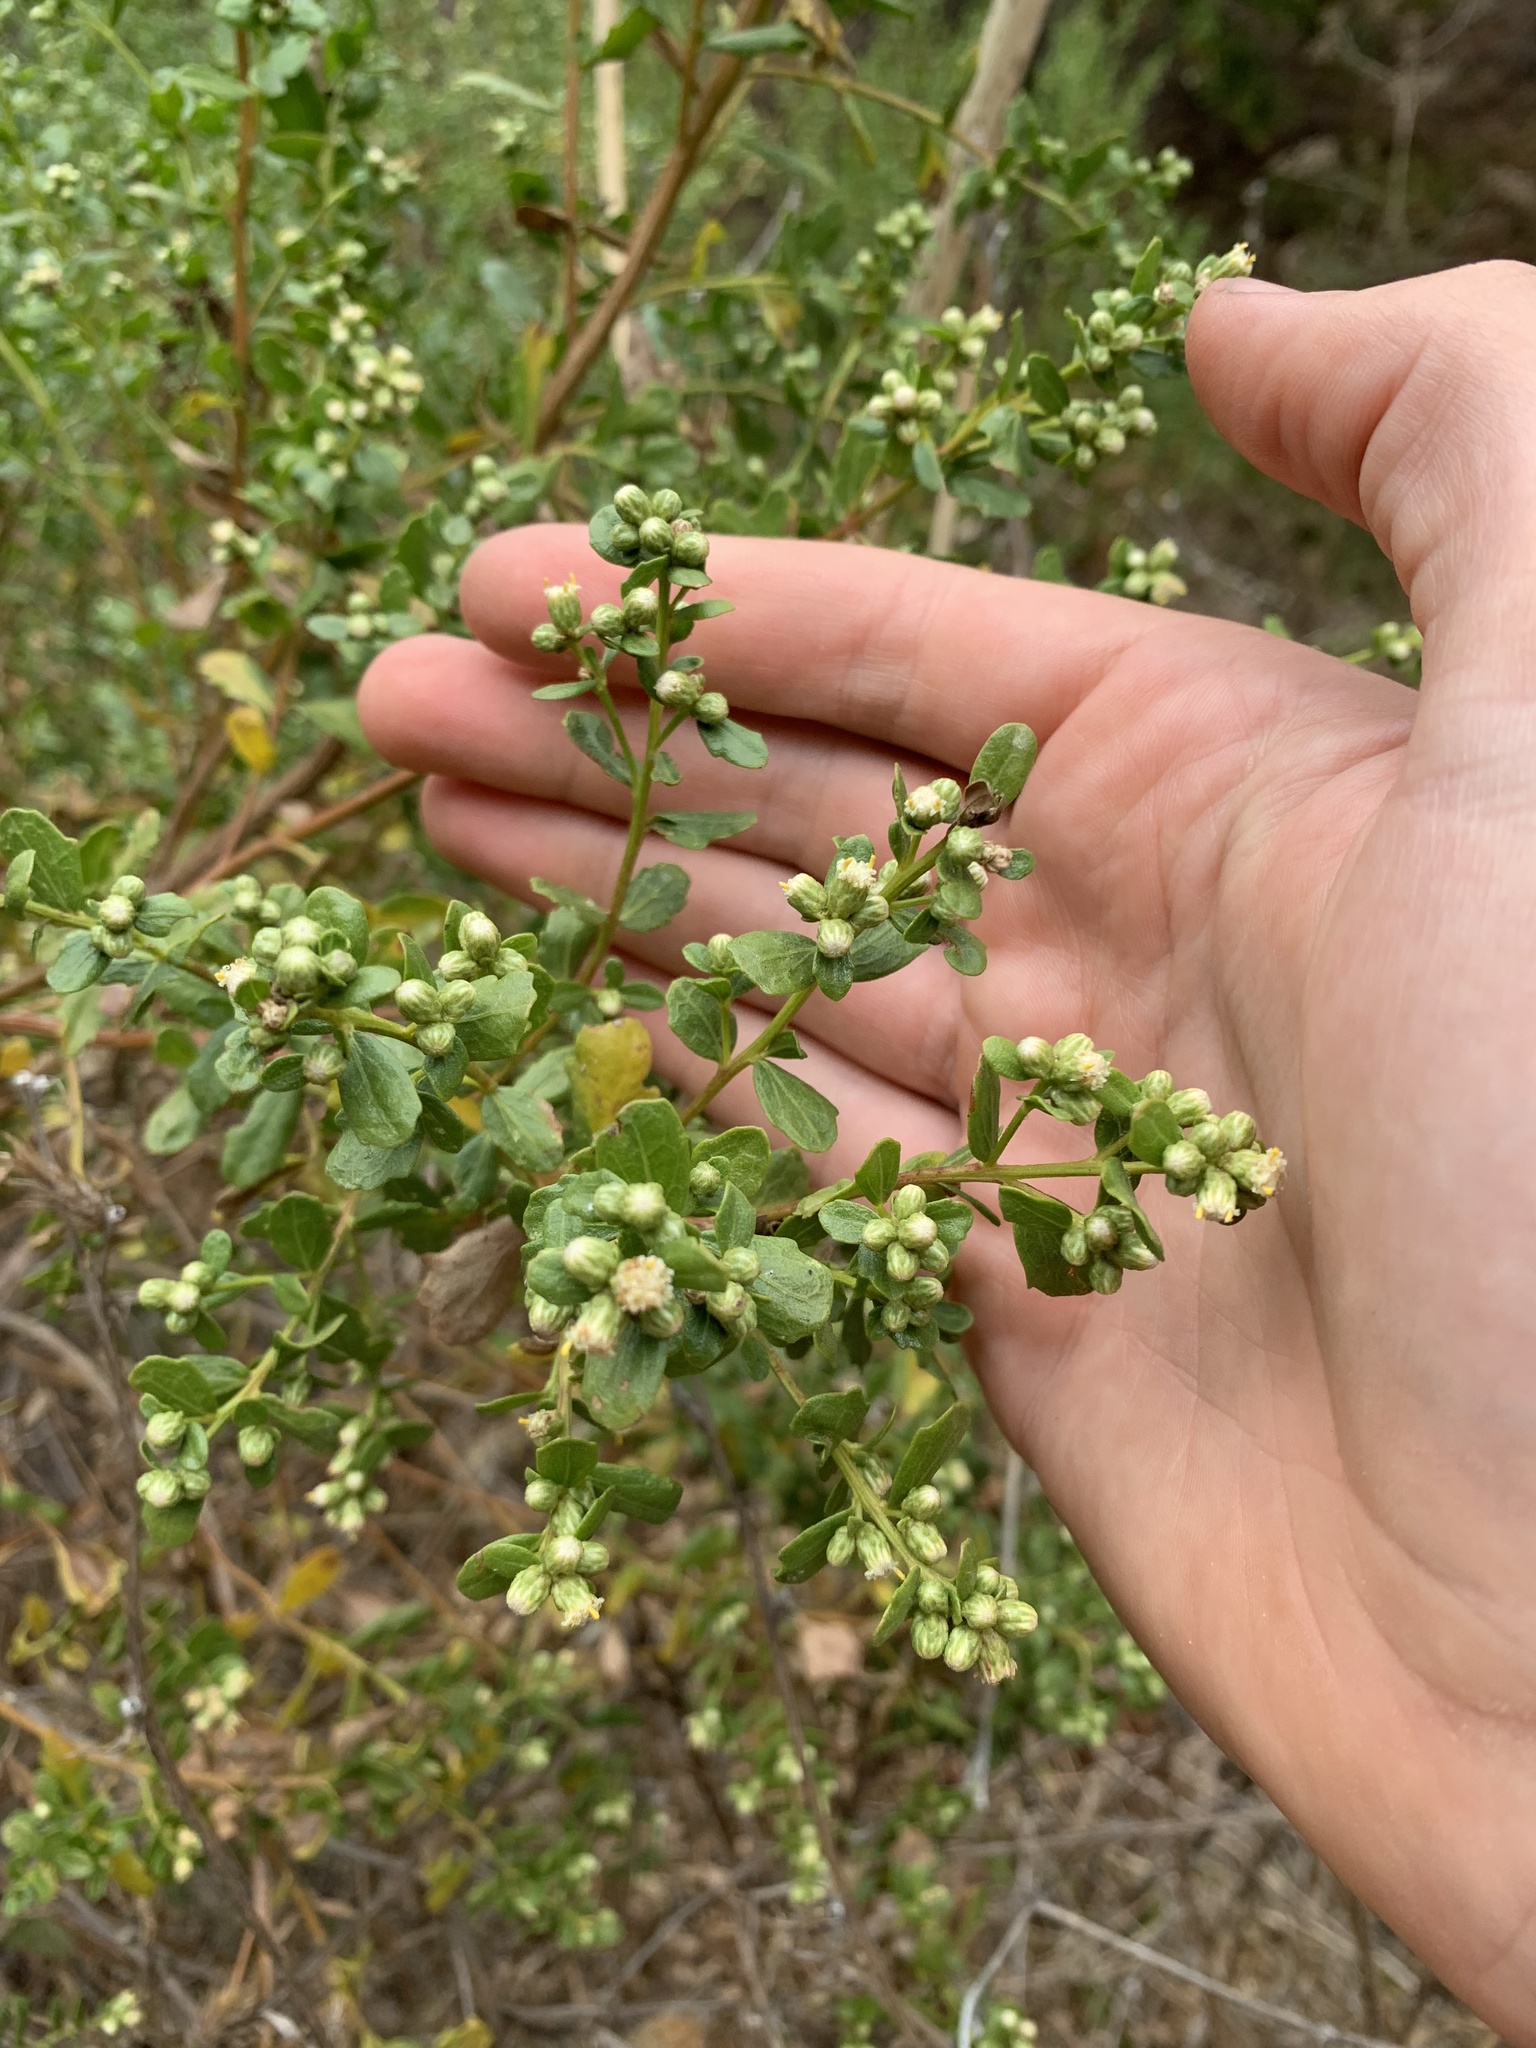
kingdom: Plantae
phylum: Tracheophyta
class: Magnoliopsida
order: Asterales
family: Asteraceae
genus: Baccharis
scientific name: Baccharis pilularis
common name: Coyotebrush
